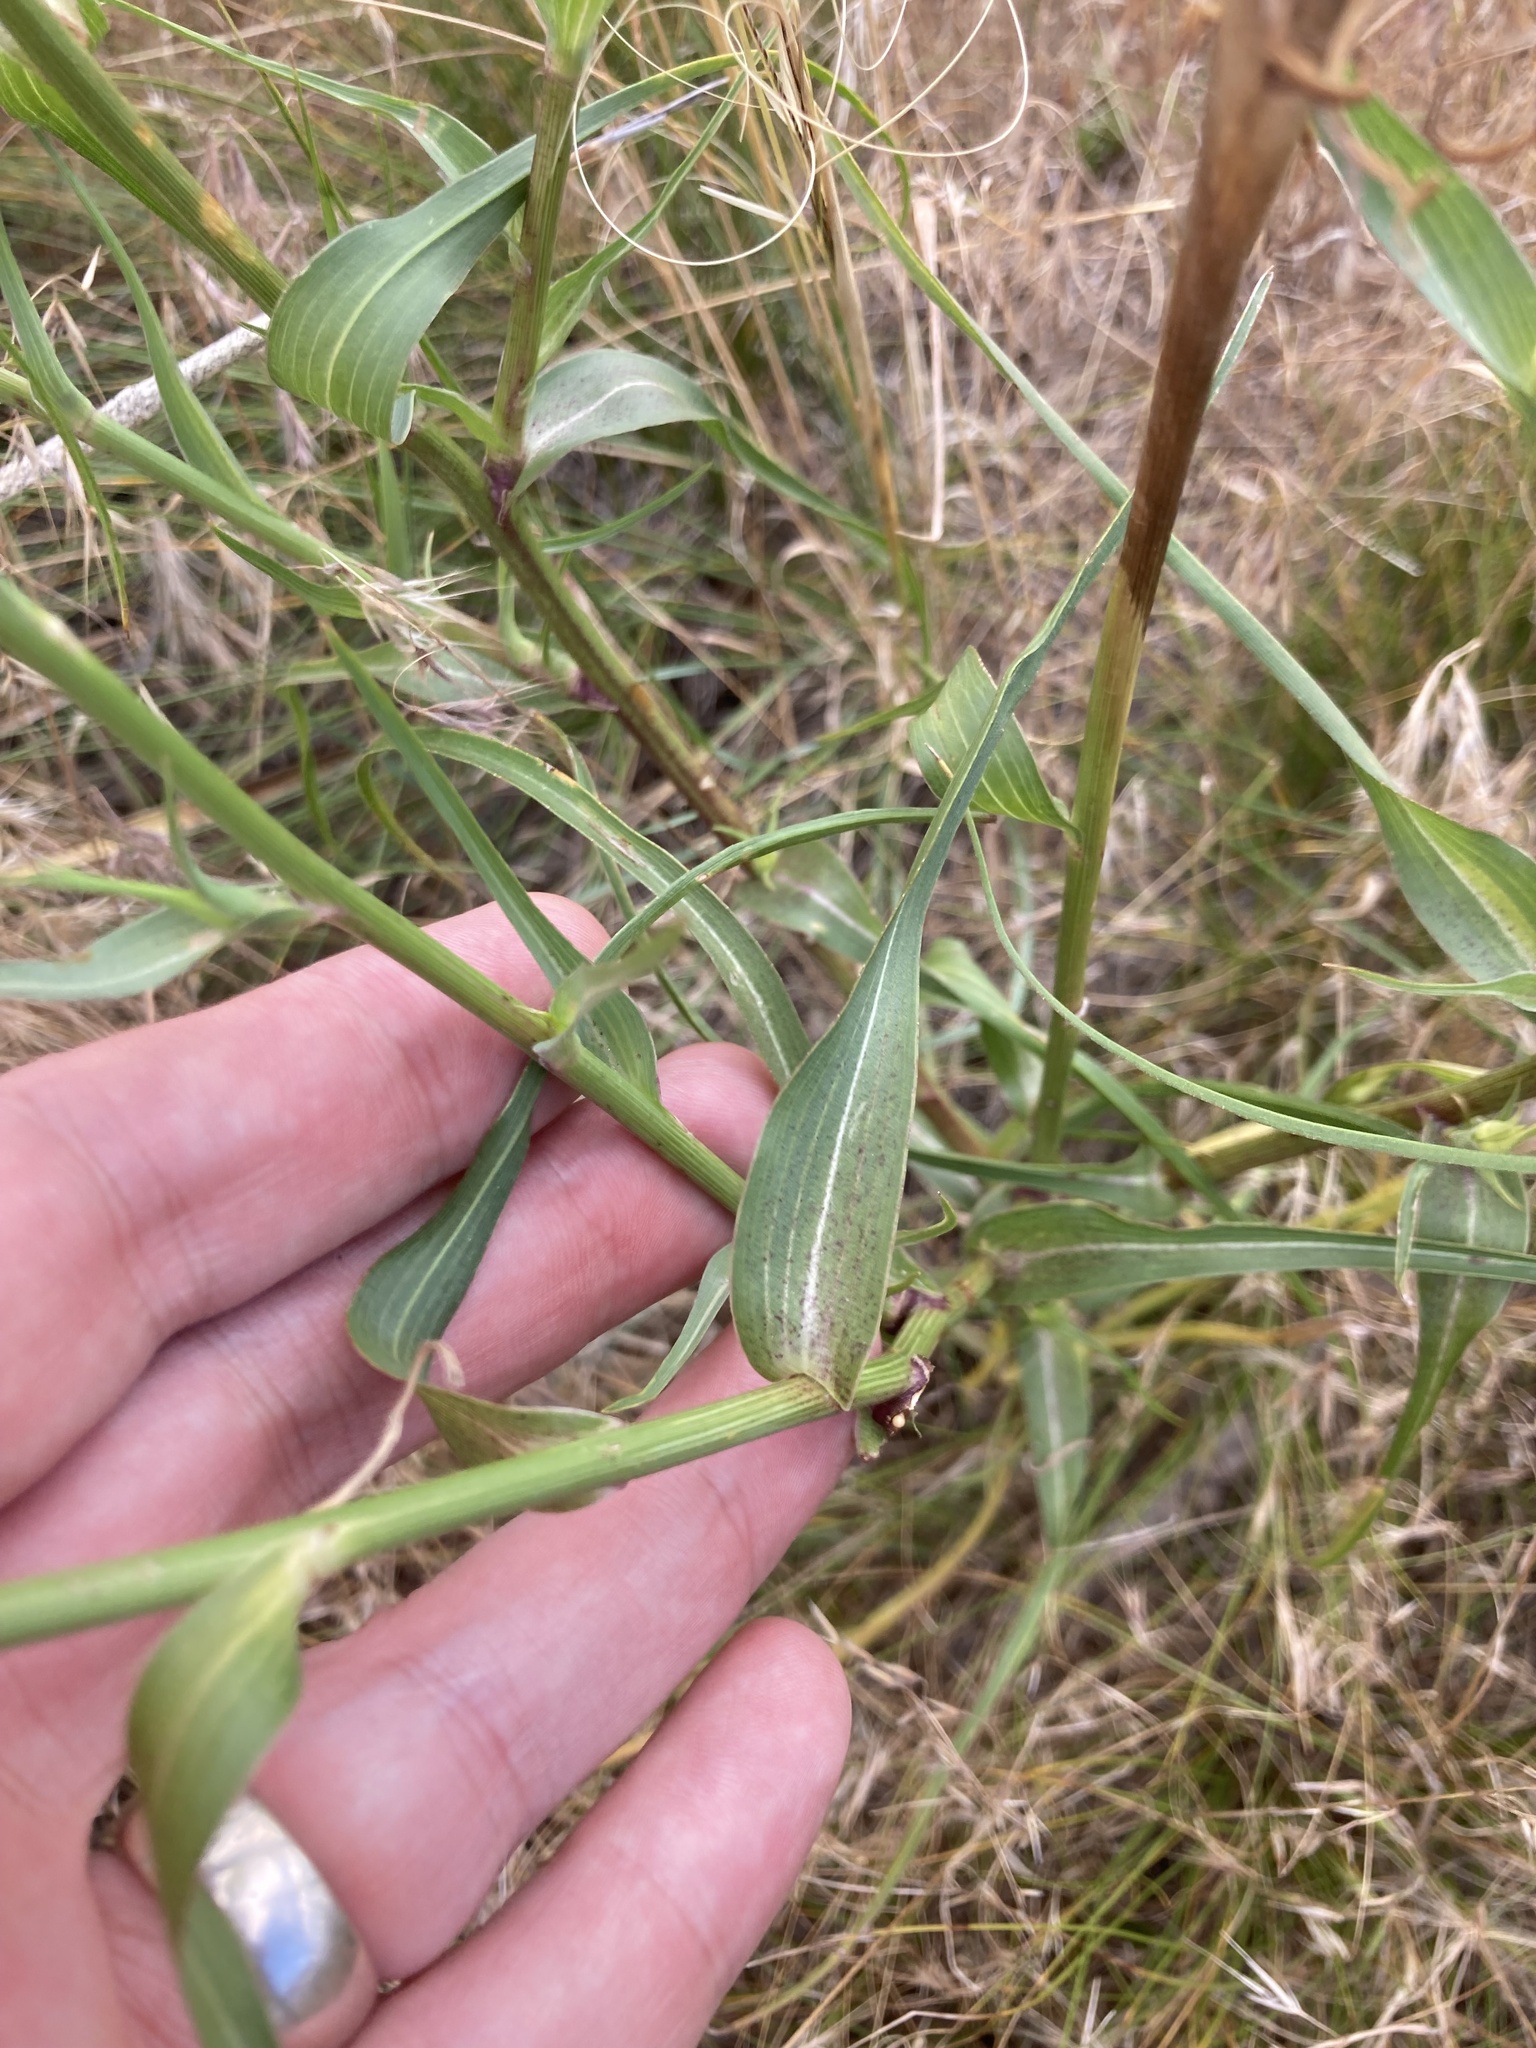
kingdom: Plantae
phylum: Tracheophyta
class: Magnoliopsida
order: Asterales
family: Asteraceae
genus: Tragopogon
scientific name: Tragopogon dubius
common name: Yellow salsify
